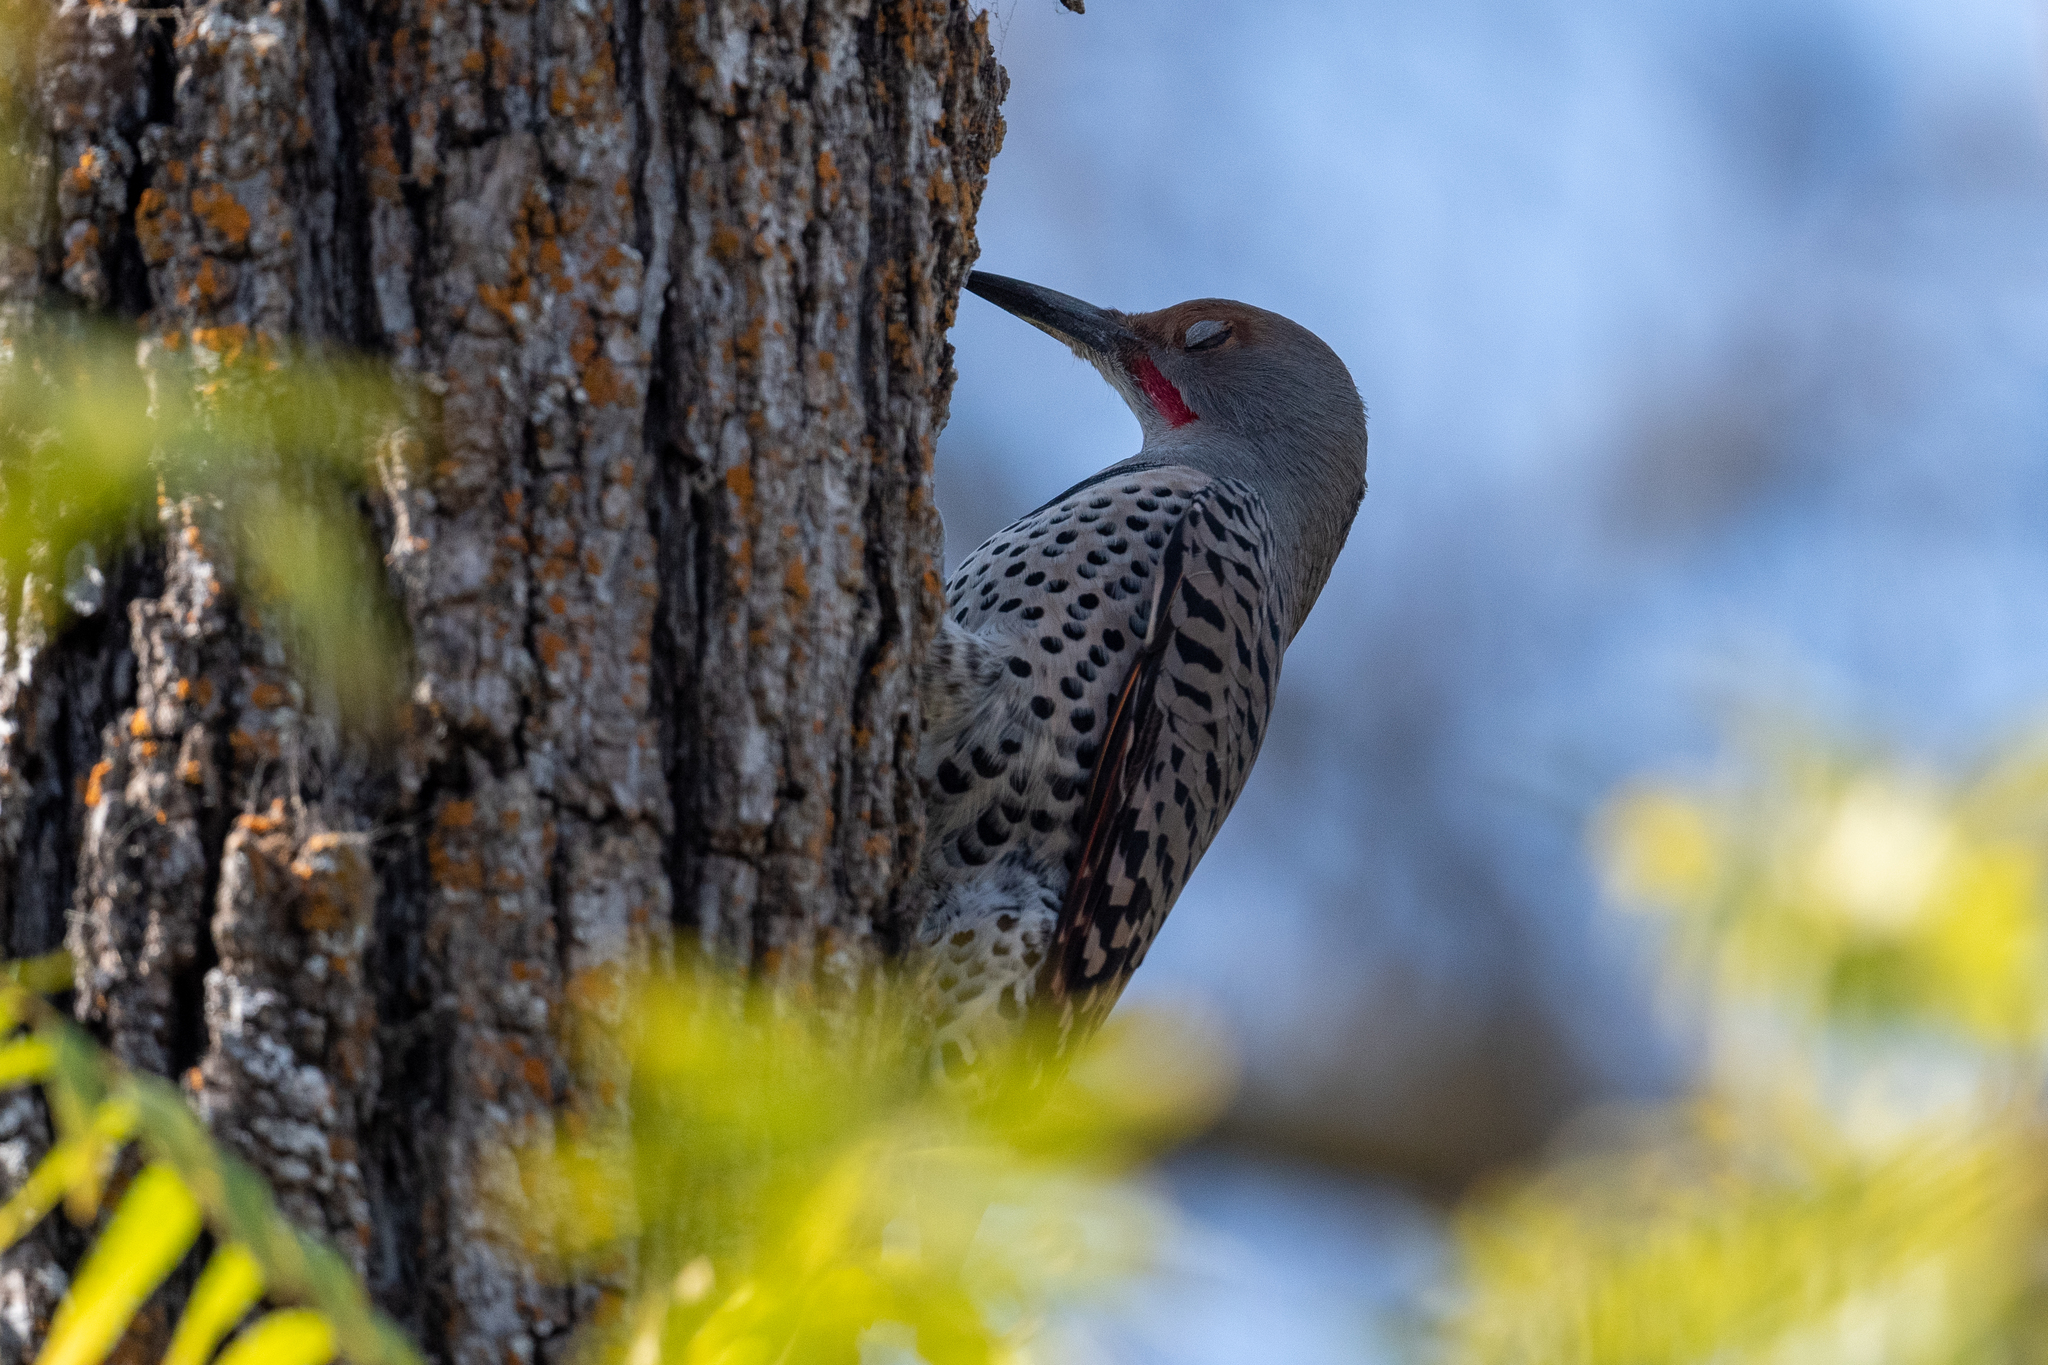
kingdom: Animalia
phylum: Chordata
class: Aves
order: Piciformes
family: Picidae
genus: Colaptes
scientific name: Colaptes auratus
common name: Northern flicker
